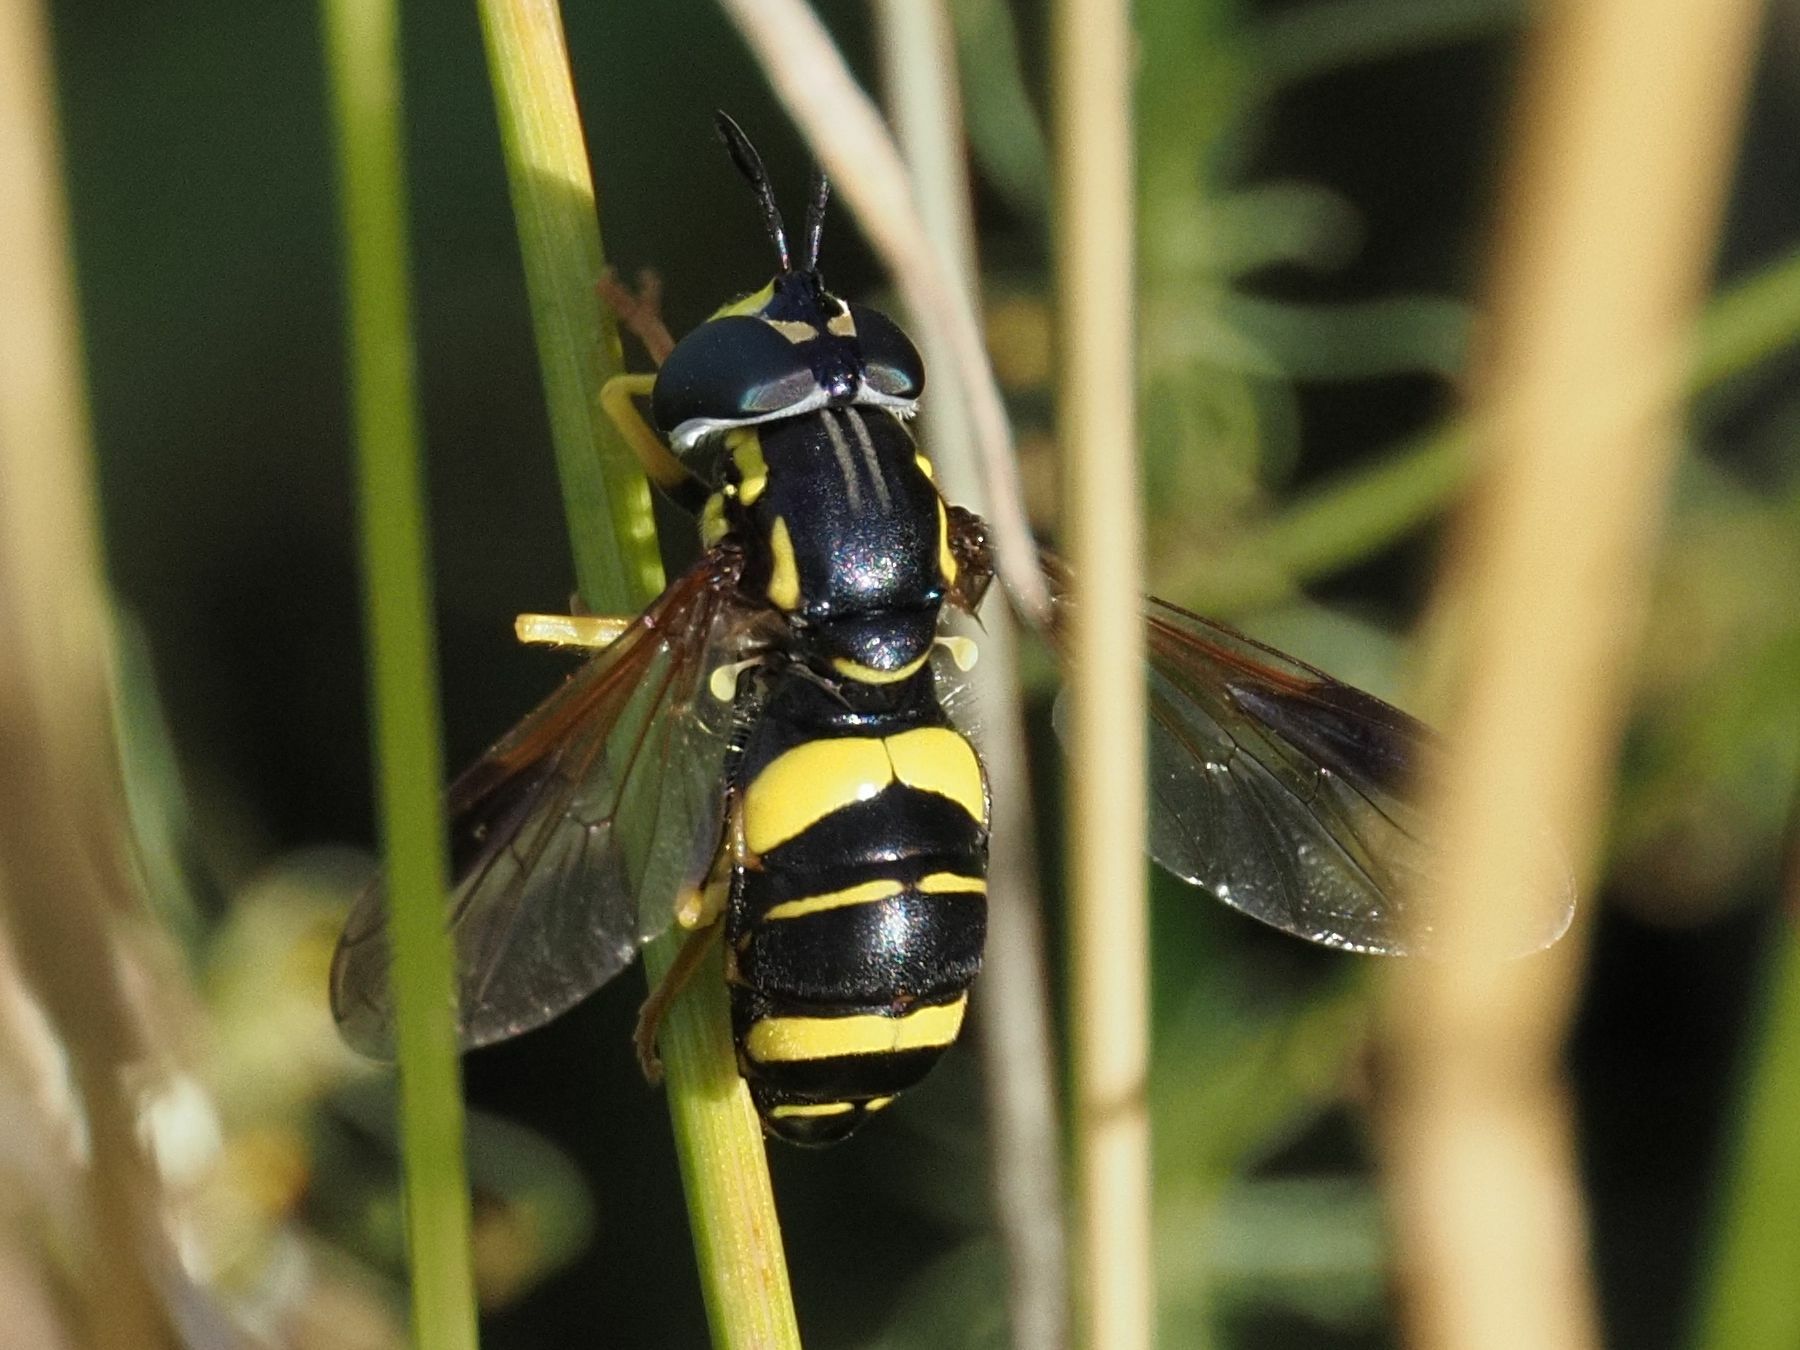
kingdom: Animalia
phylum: Arthropoda
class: Insecta
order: Diptera
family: Syrphidae
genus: Chrysotoxum
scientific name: Chrysotoxum bicincta
